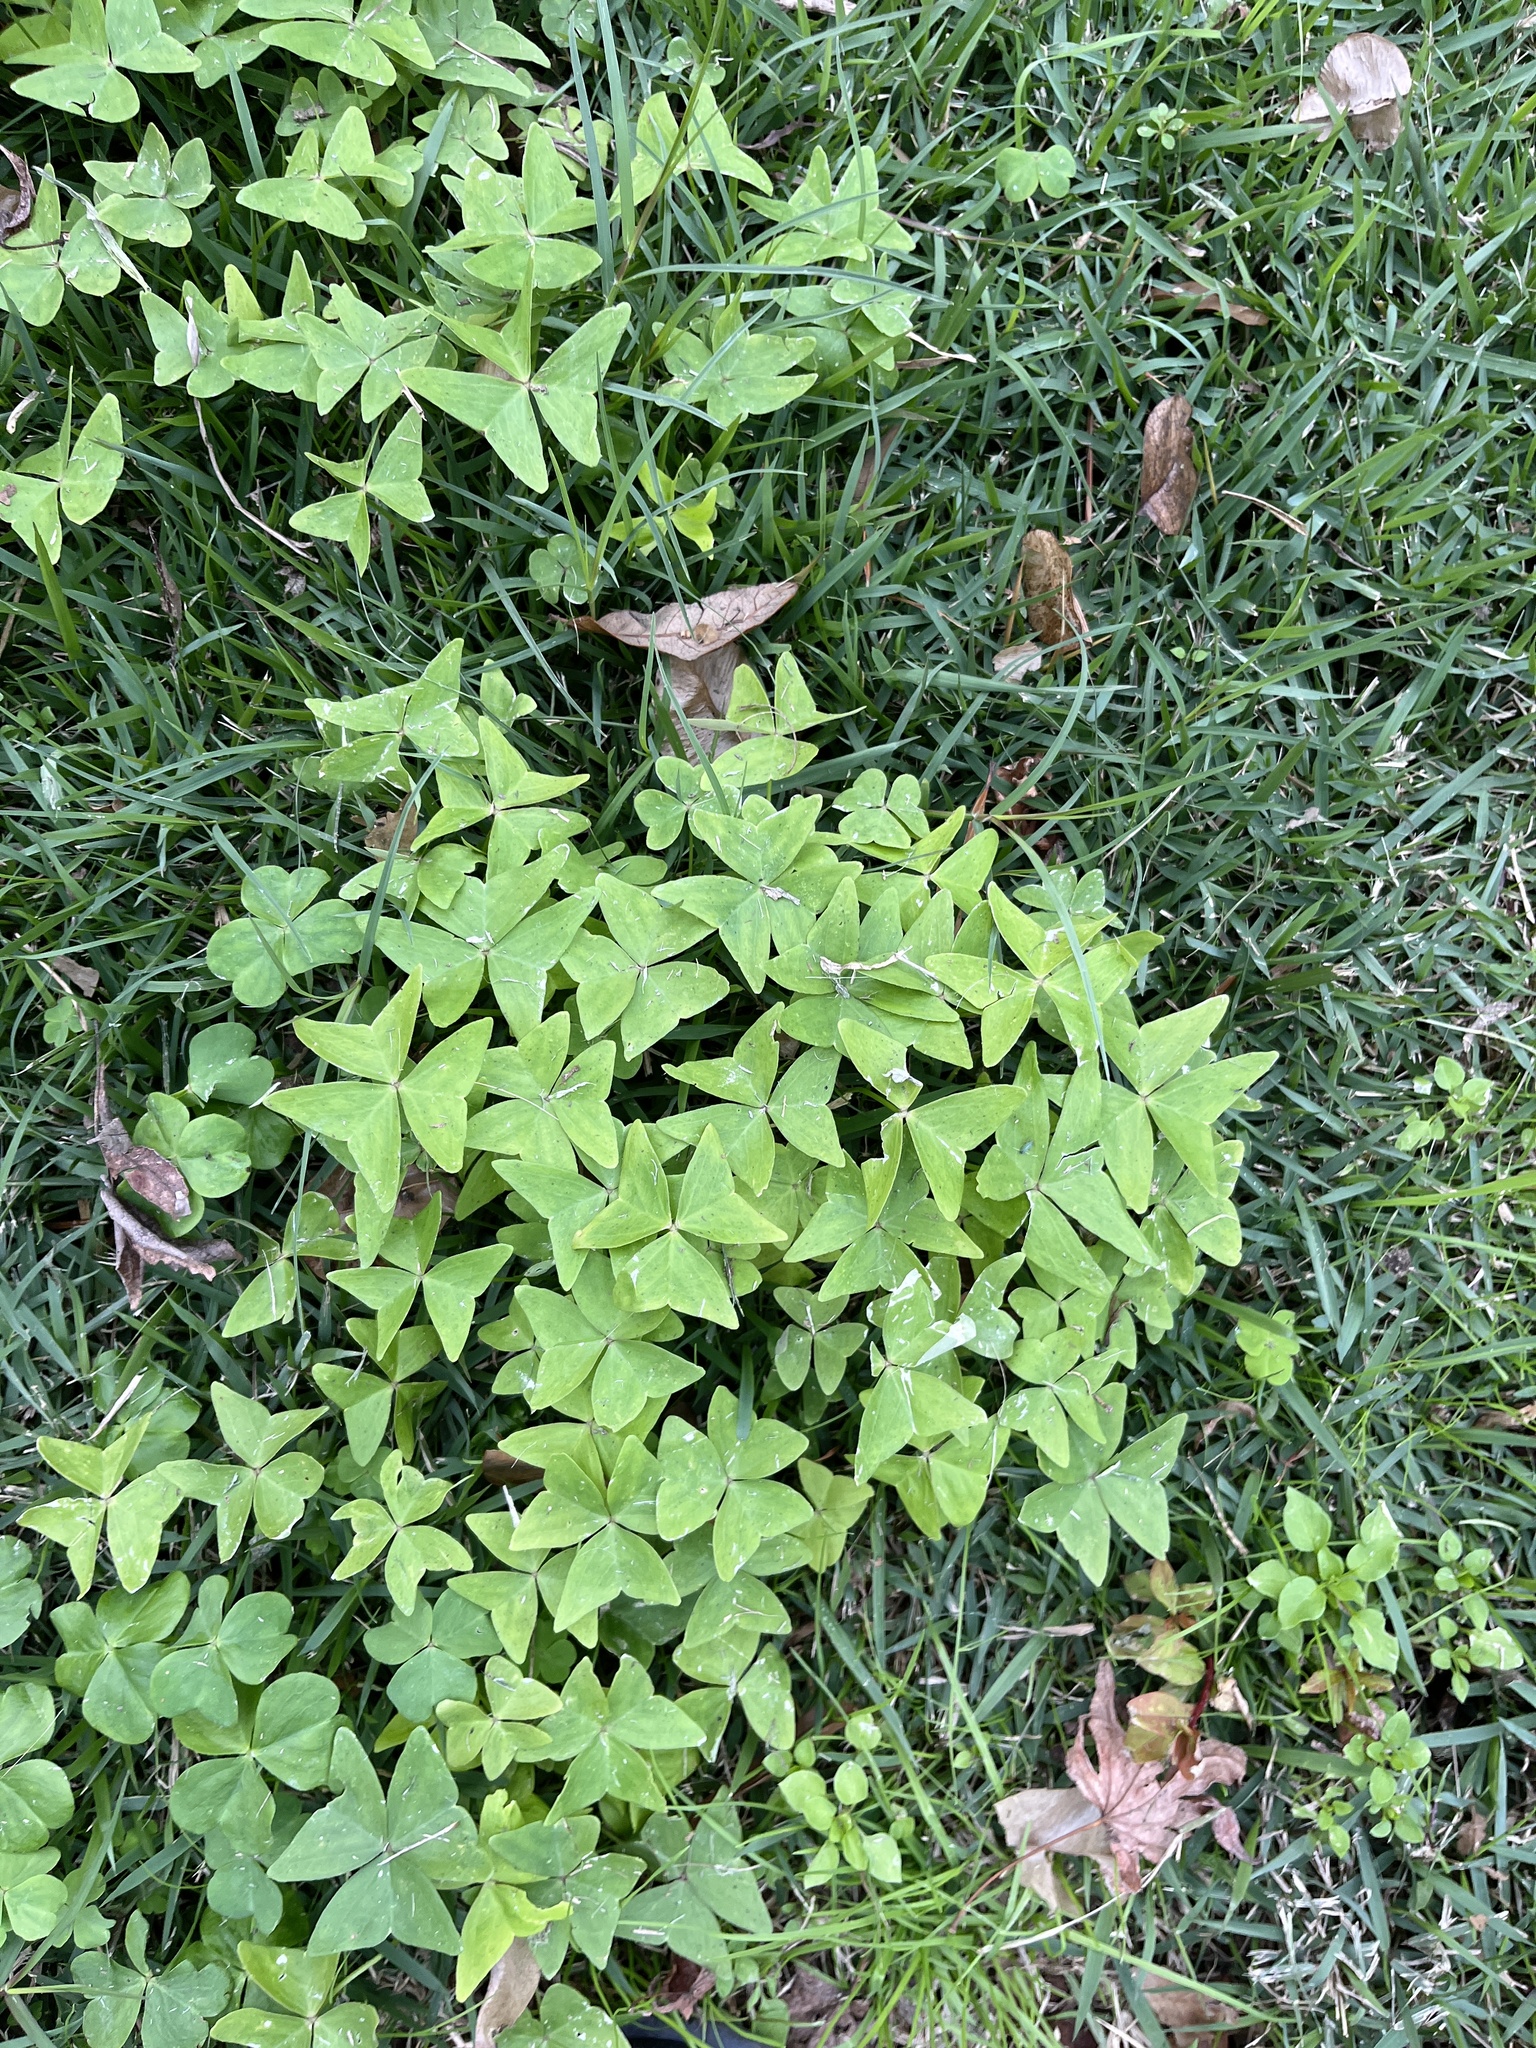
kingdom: Plantae
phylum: Tracheophyta
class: Magnoliopsida
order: Oxalidales
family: Oxalidaceae
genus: Oxalis
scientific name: Oxalis intermedia
